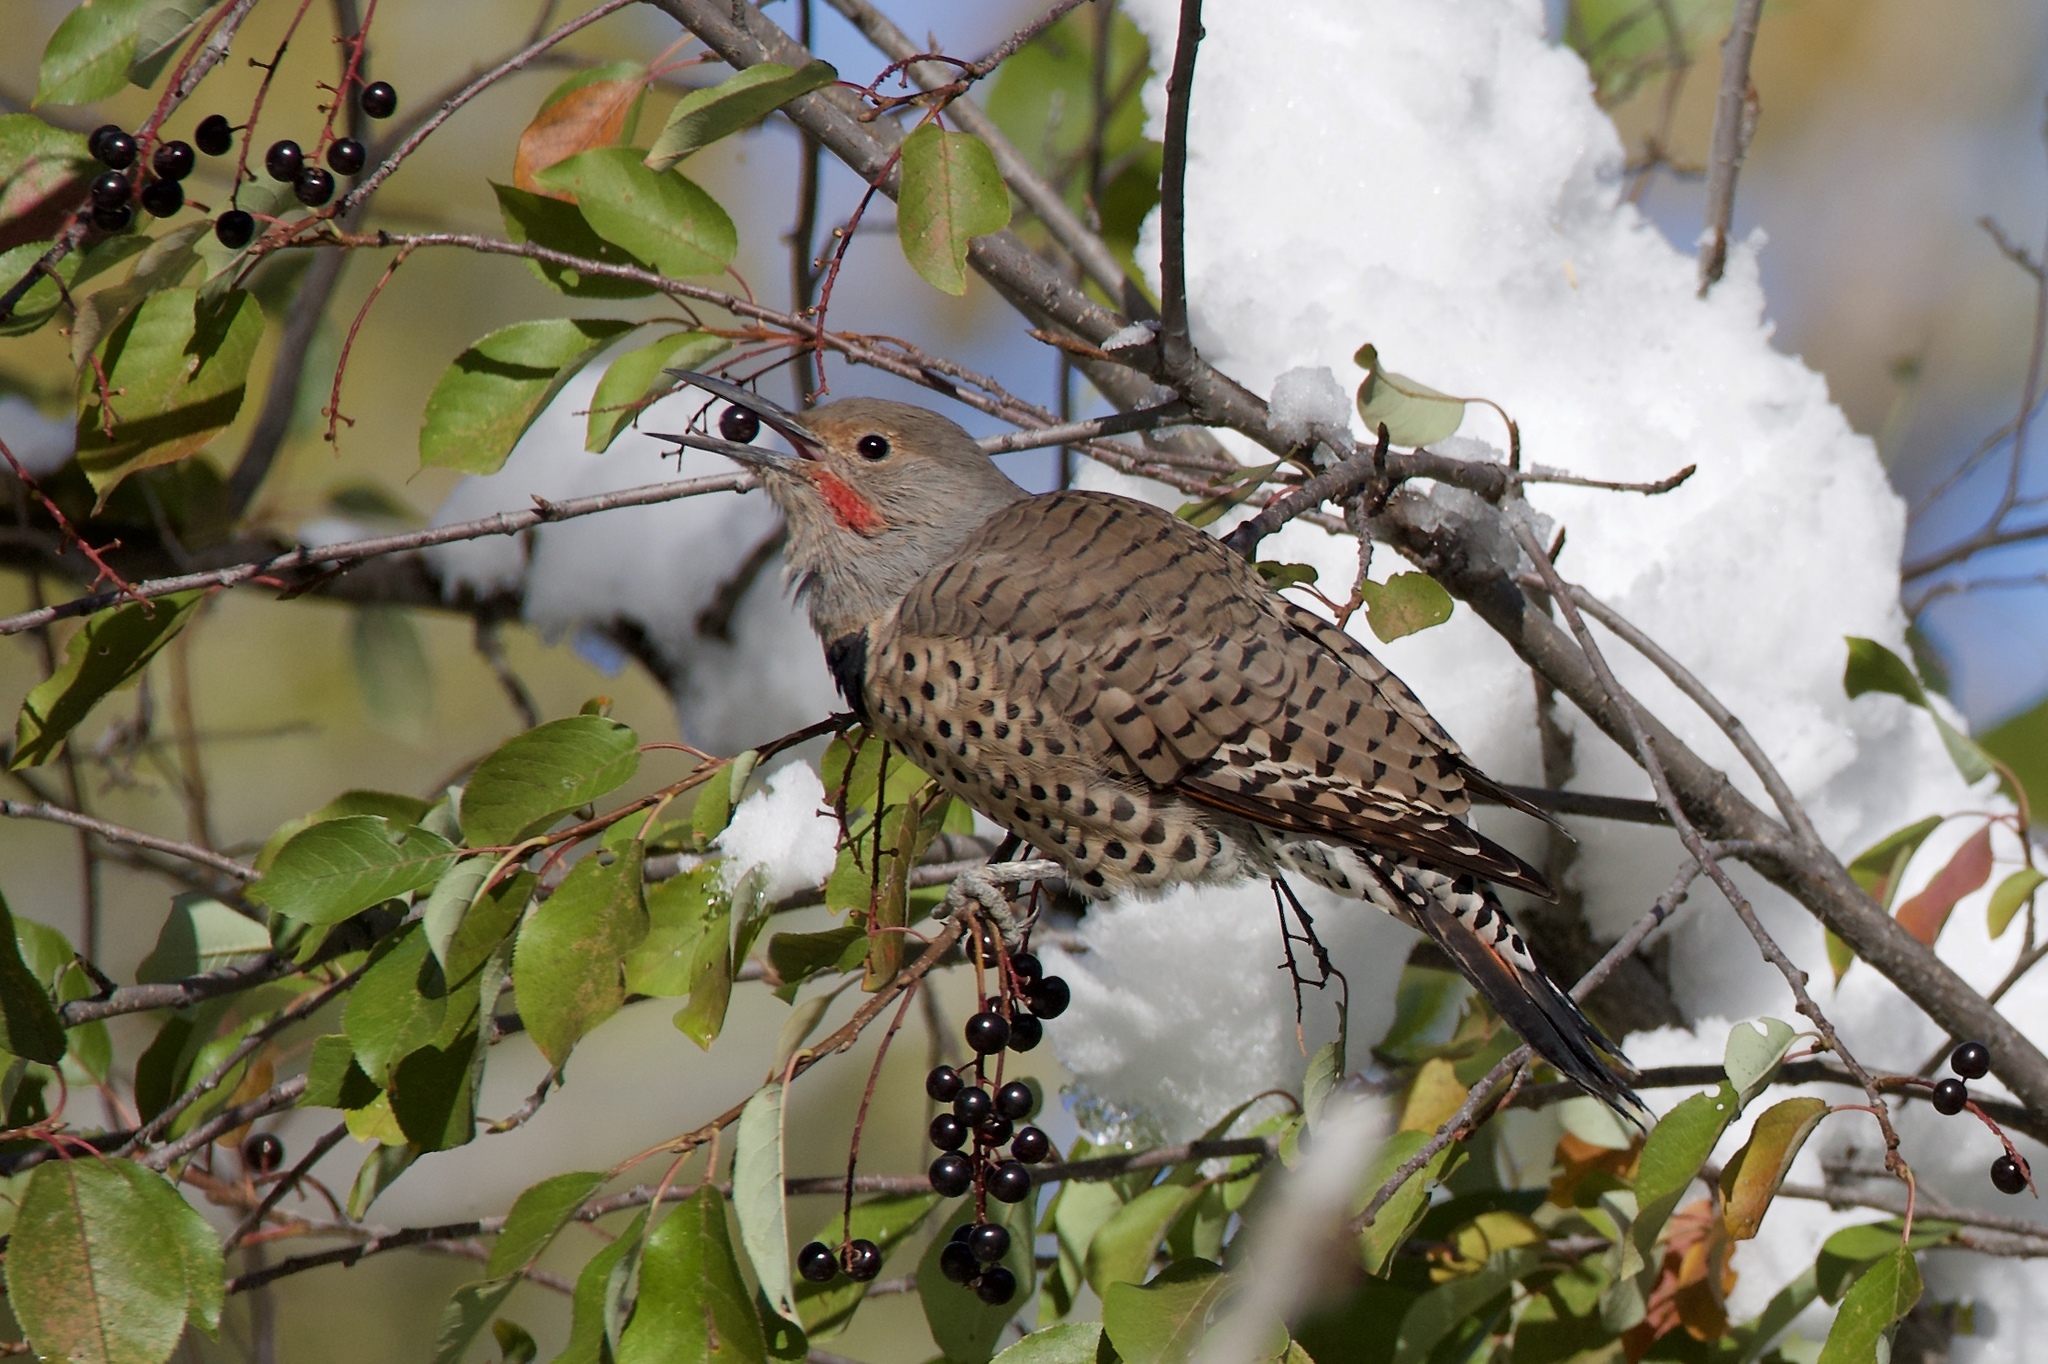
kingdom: Animalia
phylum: Chordata
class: Aves
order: Piciformes
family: Picidae
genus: Colaptes
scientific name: Colaptes auratus
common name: Northern flicker
